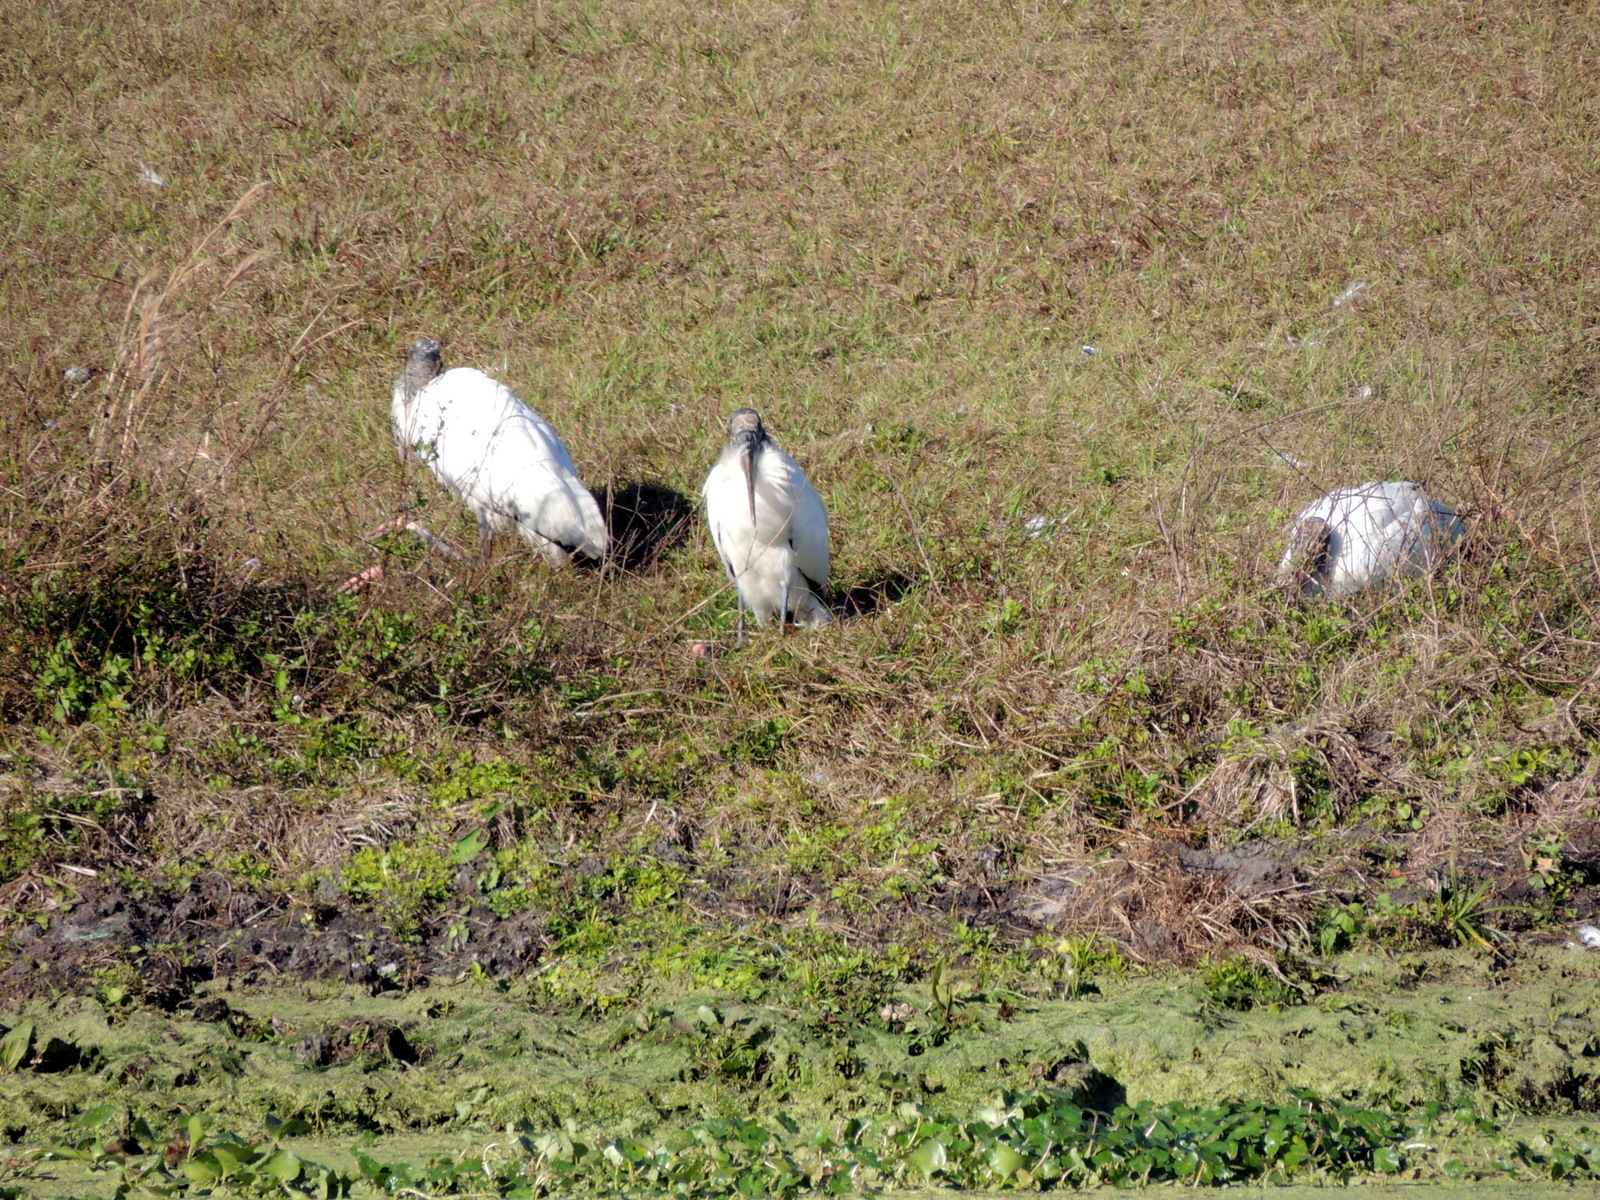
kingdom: Animalia
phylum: Chordata
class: Aves
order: Ciconiiformes
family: Ciconiidae
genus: Mycteria
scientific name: Mycteria americana
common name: Wood stork
